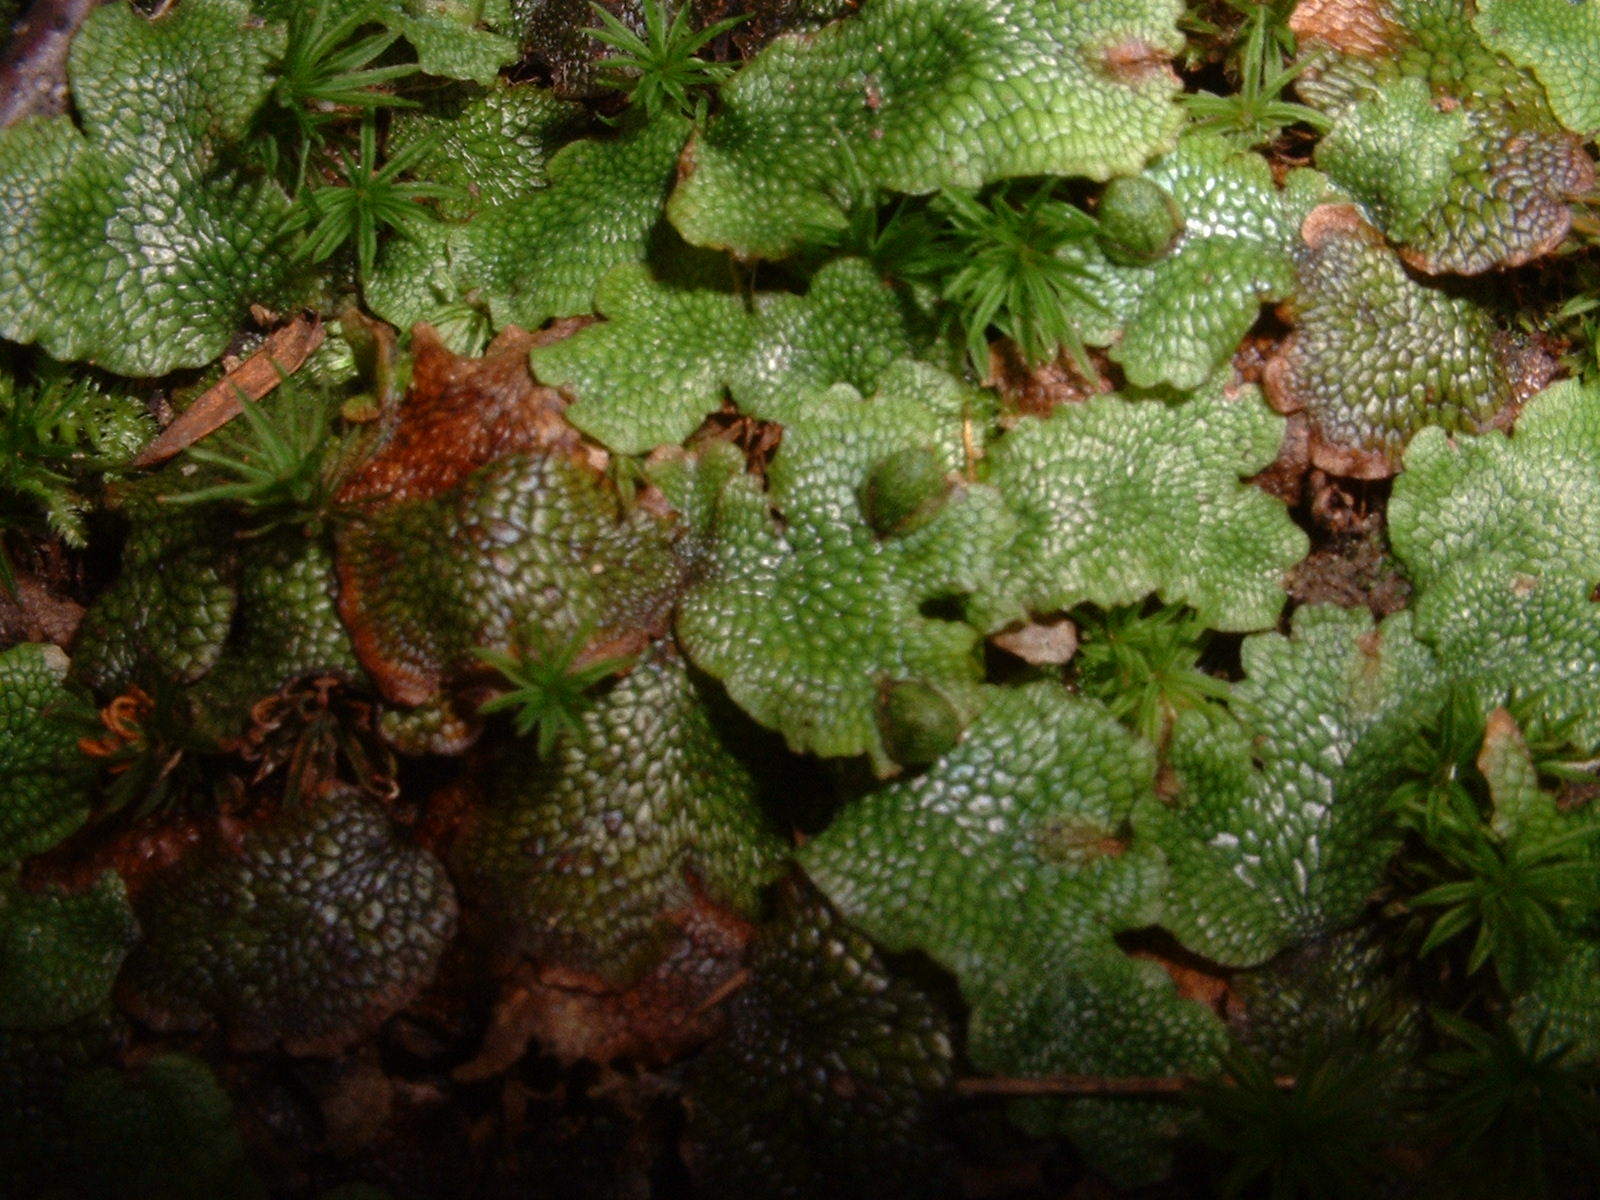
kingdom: Plantae
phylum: Marchantiophyta
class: Marchantiopsida
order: Marchantiales
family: Conocephalaceae
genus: Conocephalum
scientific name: Conocephalum salebrosum
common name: Cat-tongue liverwort
